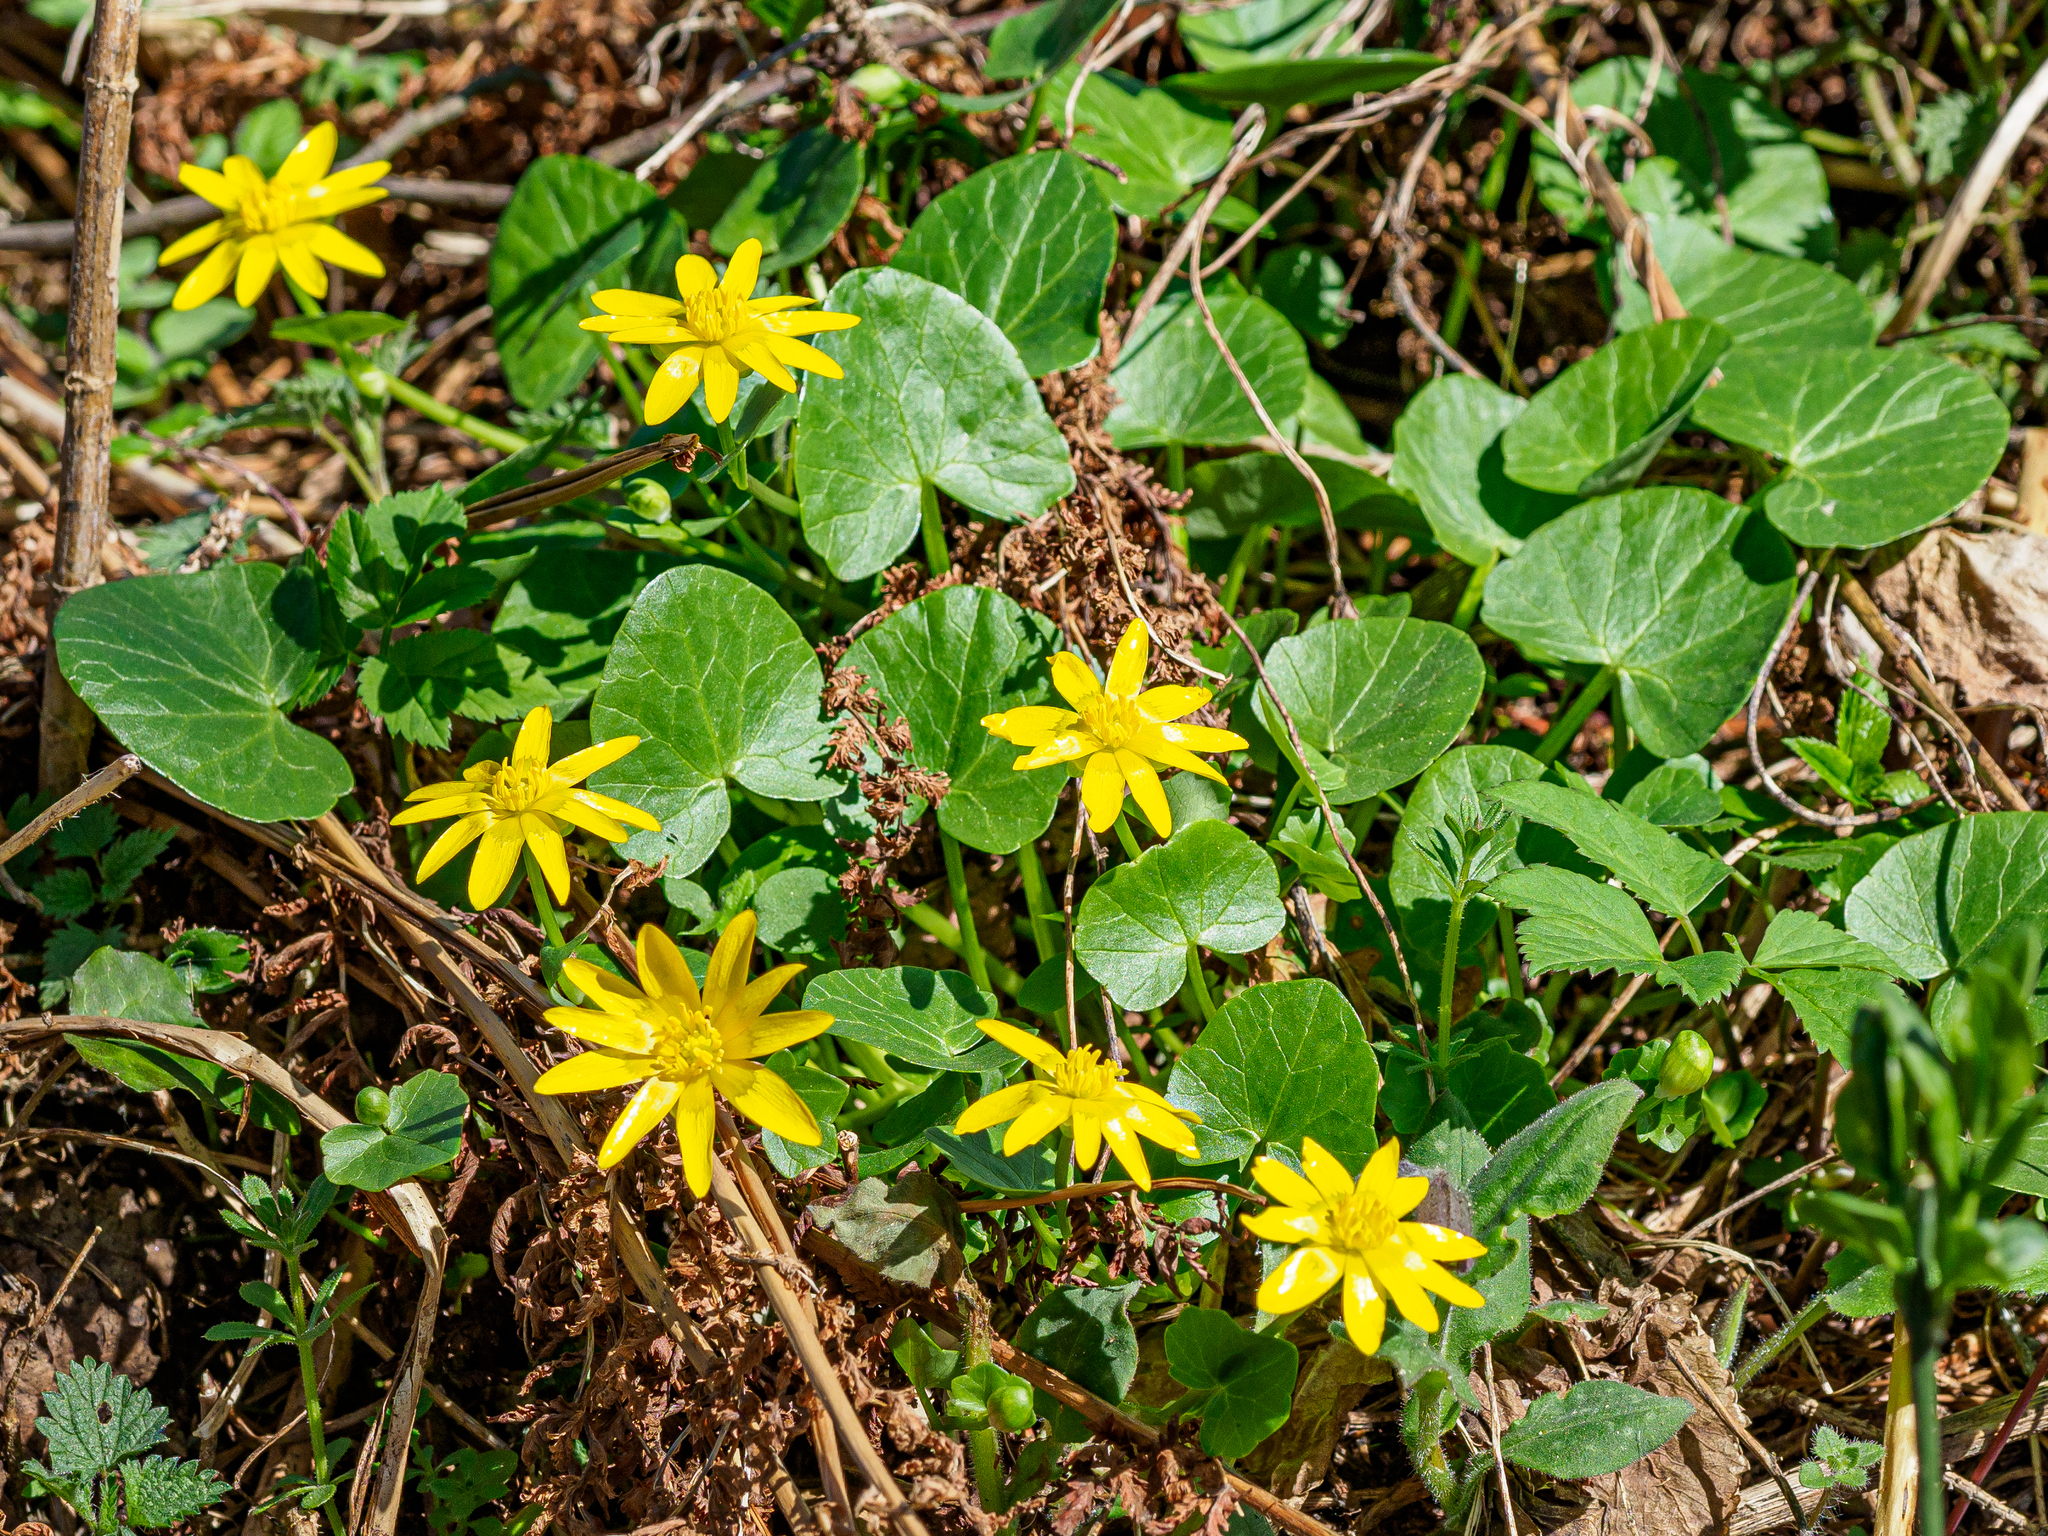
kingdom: Plantae
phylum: Tracheophyta
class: Magnoliopsida
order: Ranunculales
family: Ranunculaceae
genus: Ficaria
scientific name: Ficaria verna
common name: Lesser celandine
